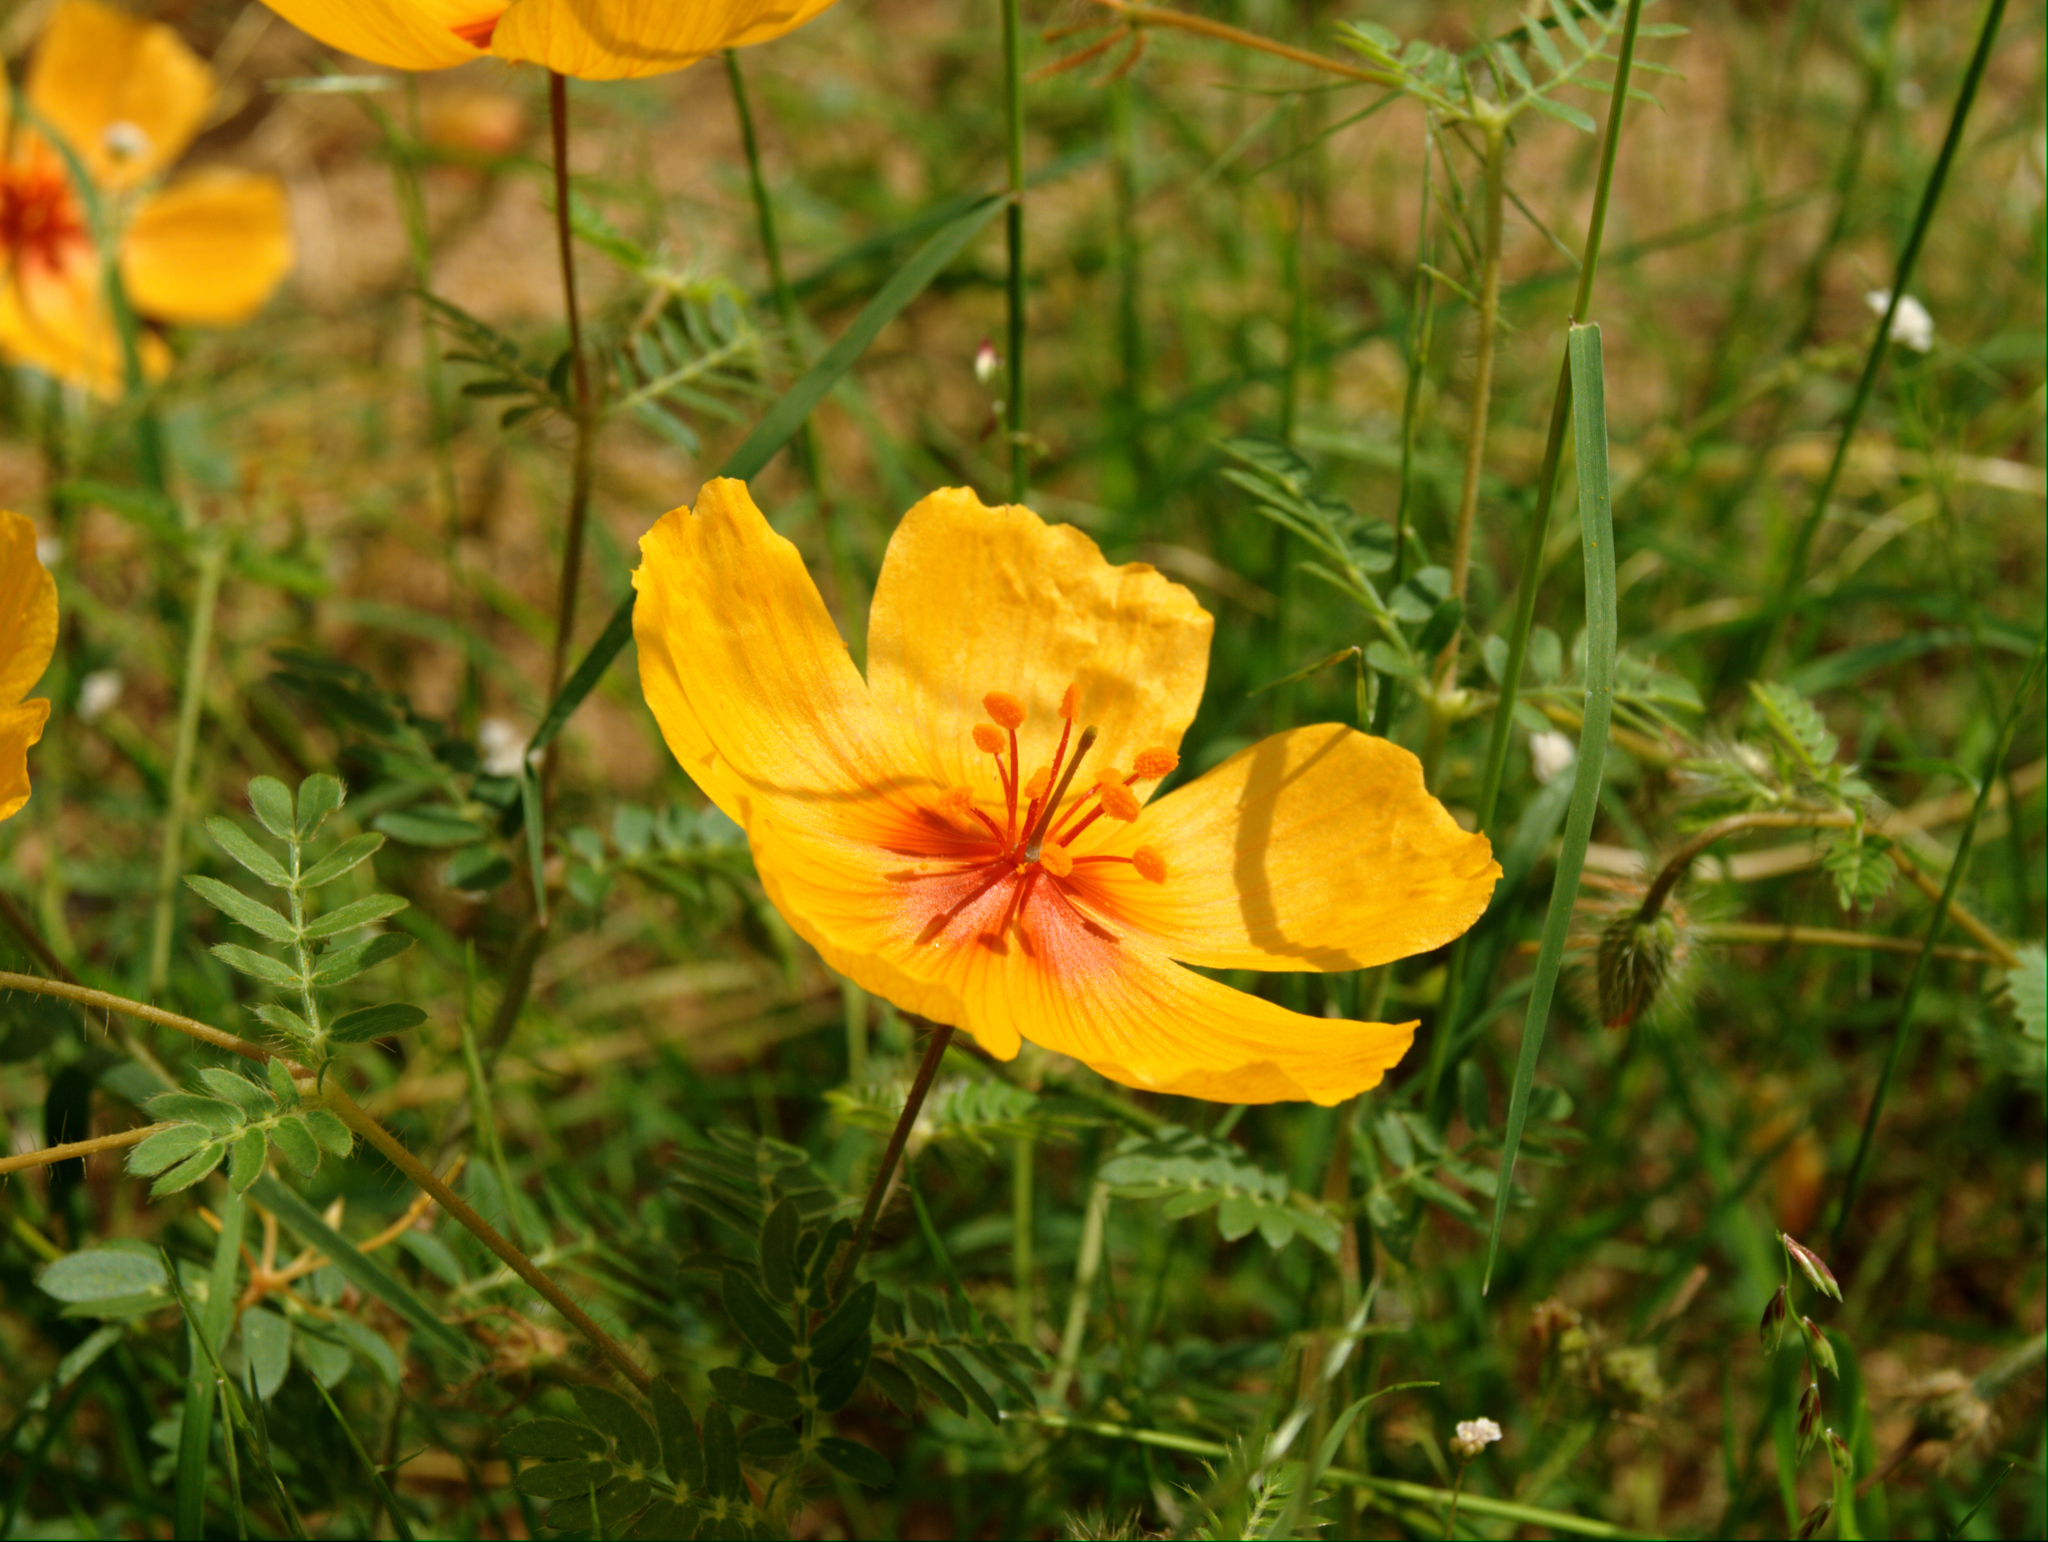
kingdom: Plantae
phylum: Tracheophyta
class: Magnoliopsida
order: Zygophyllales
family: Zygophyllaceae
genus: Kallstroemia
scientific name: Kallstroemia grandiflora
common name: Arizona-poppy
